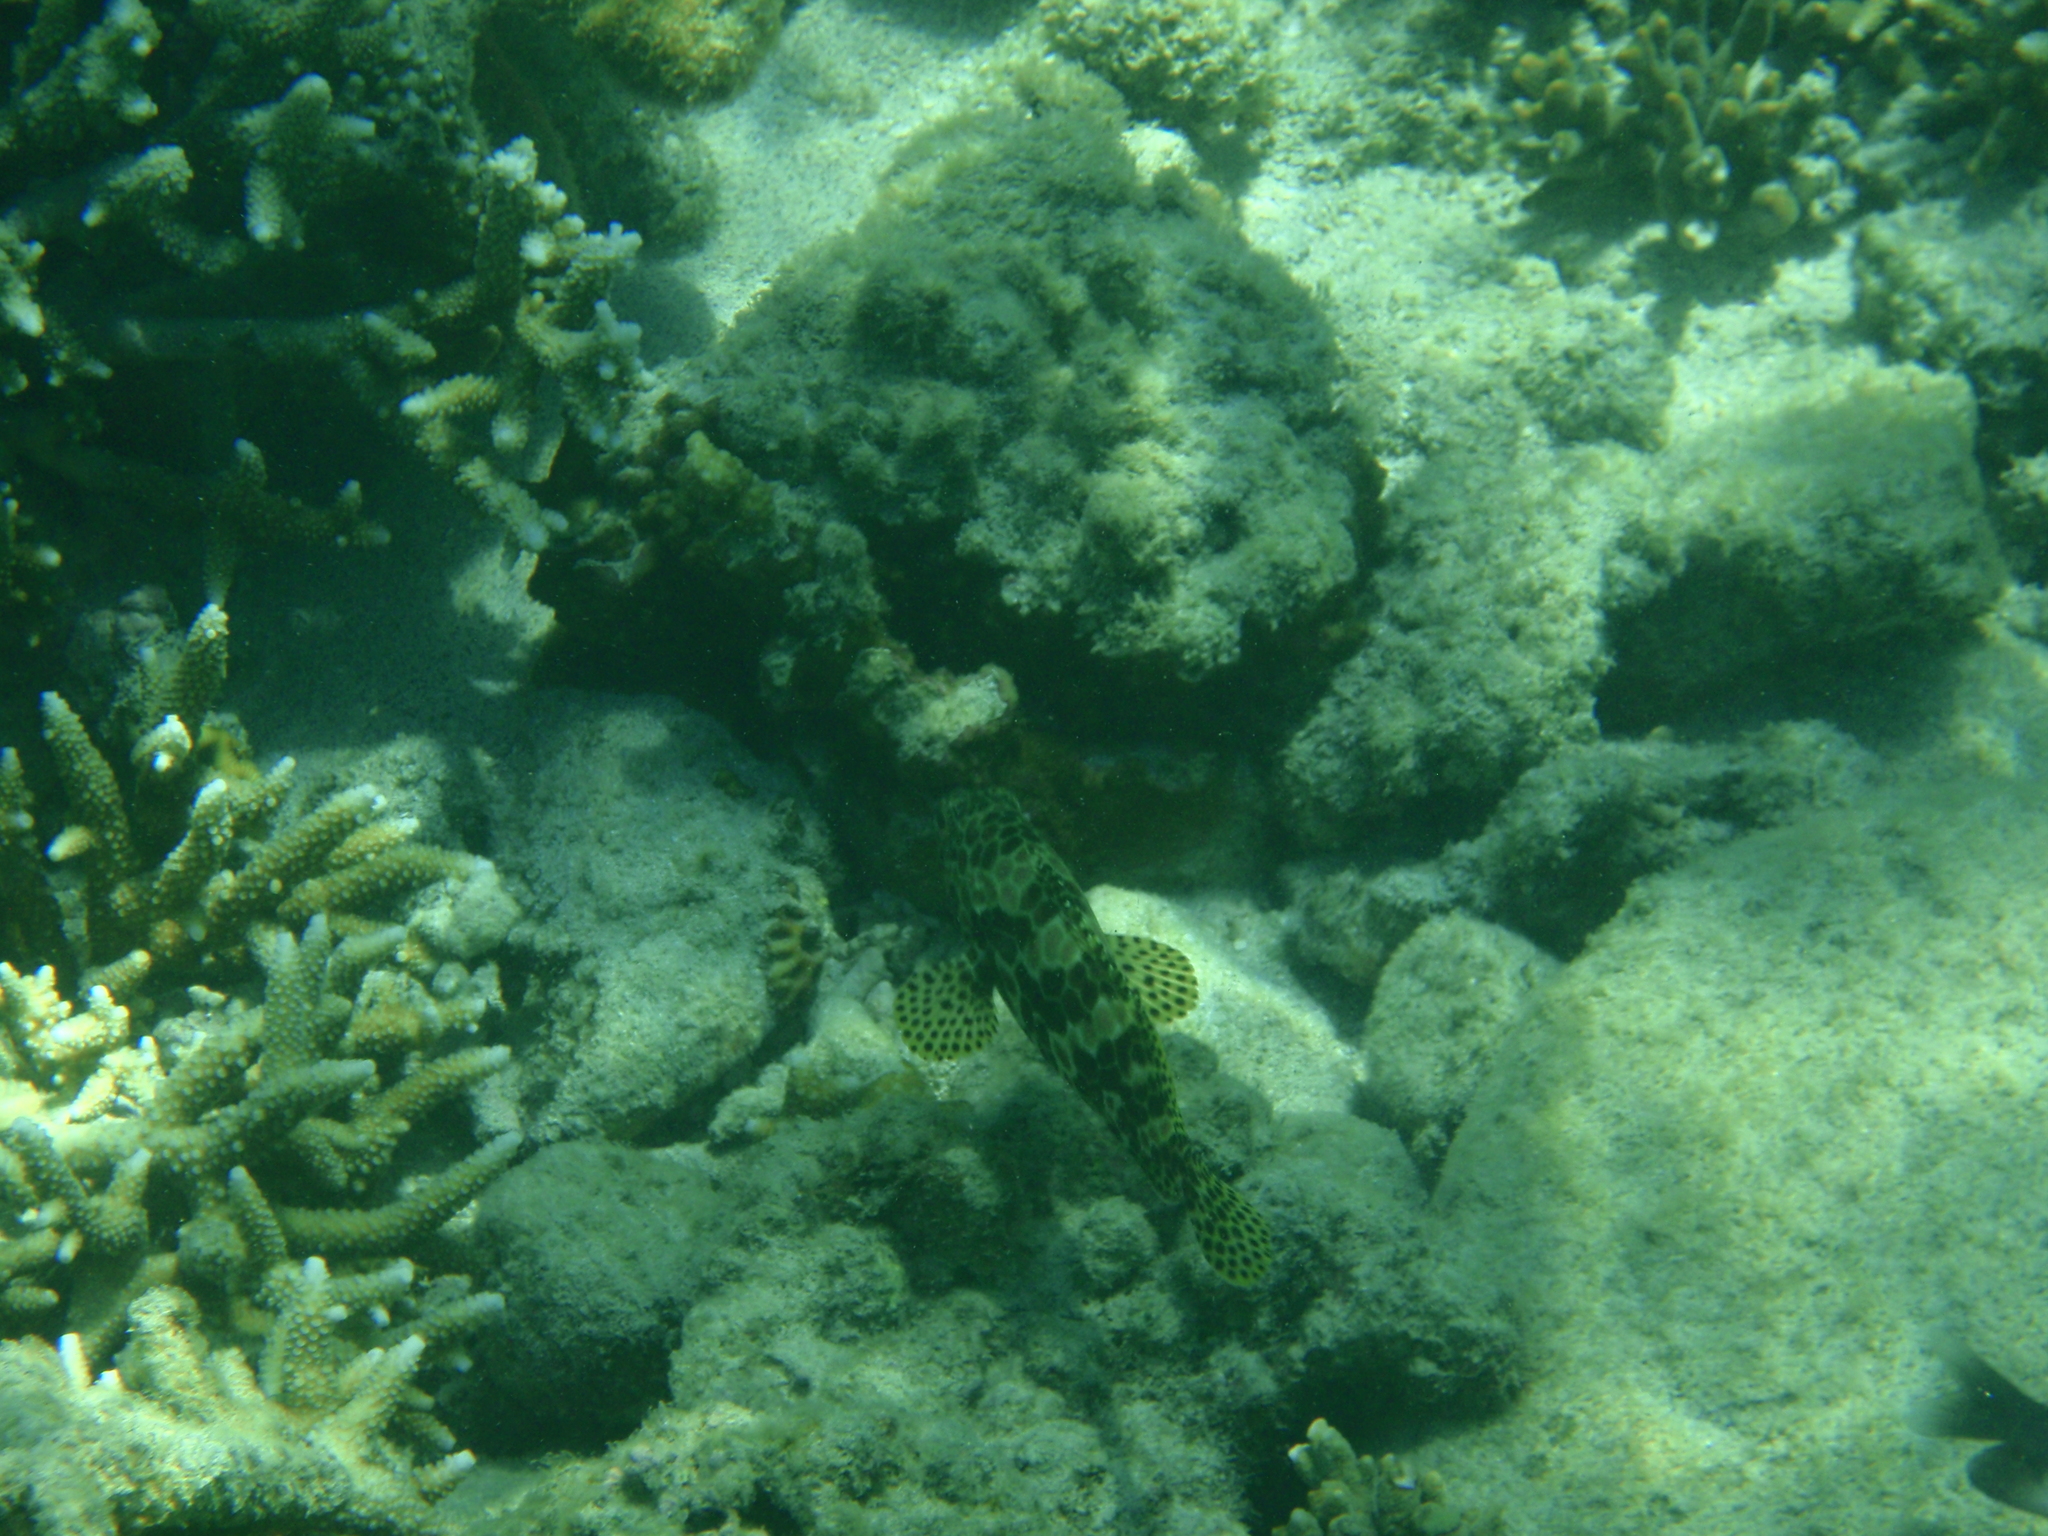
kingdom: Animalia
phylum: Chordata
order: Perciformes
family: Serranidae
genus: Epinephelus
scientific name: Epinephelus merra
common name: Honeycomb grouper
